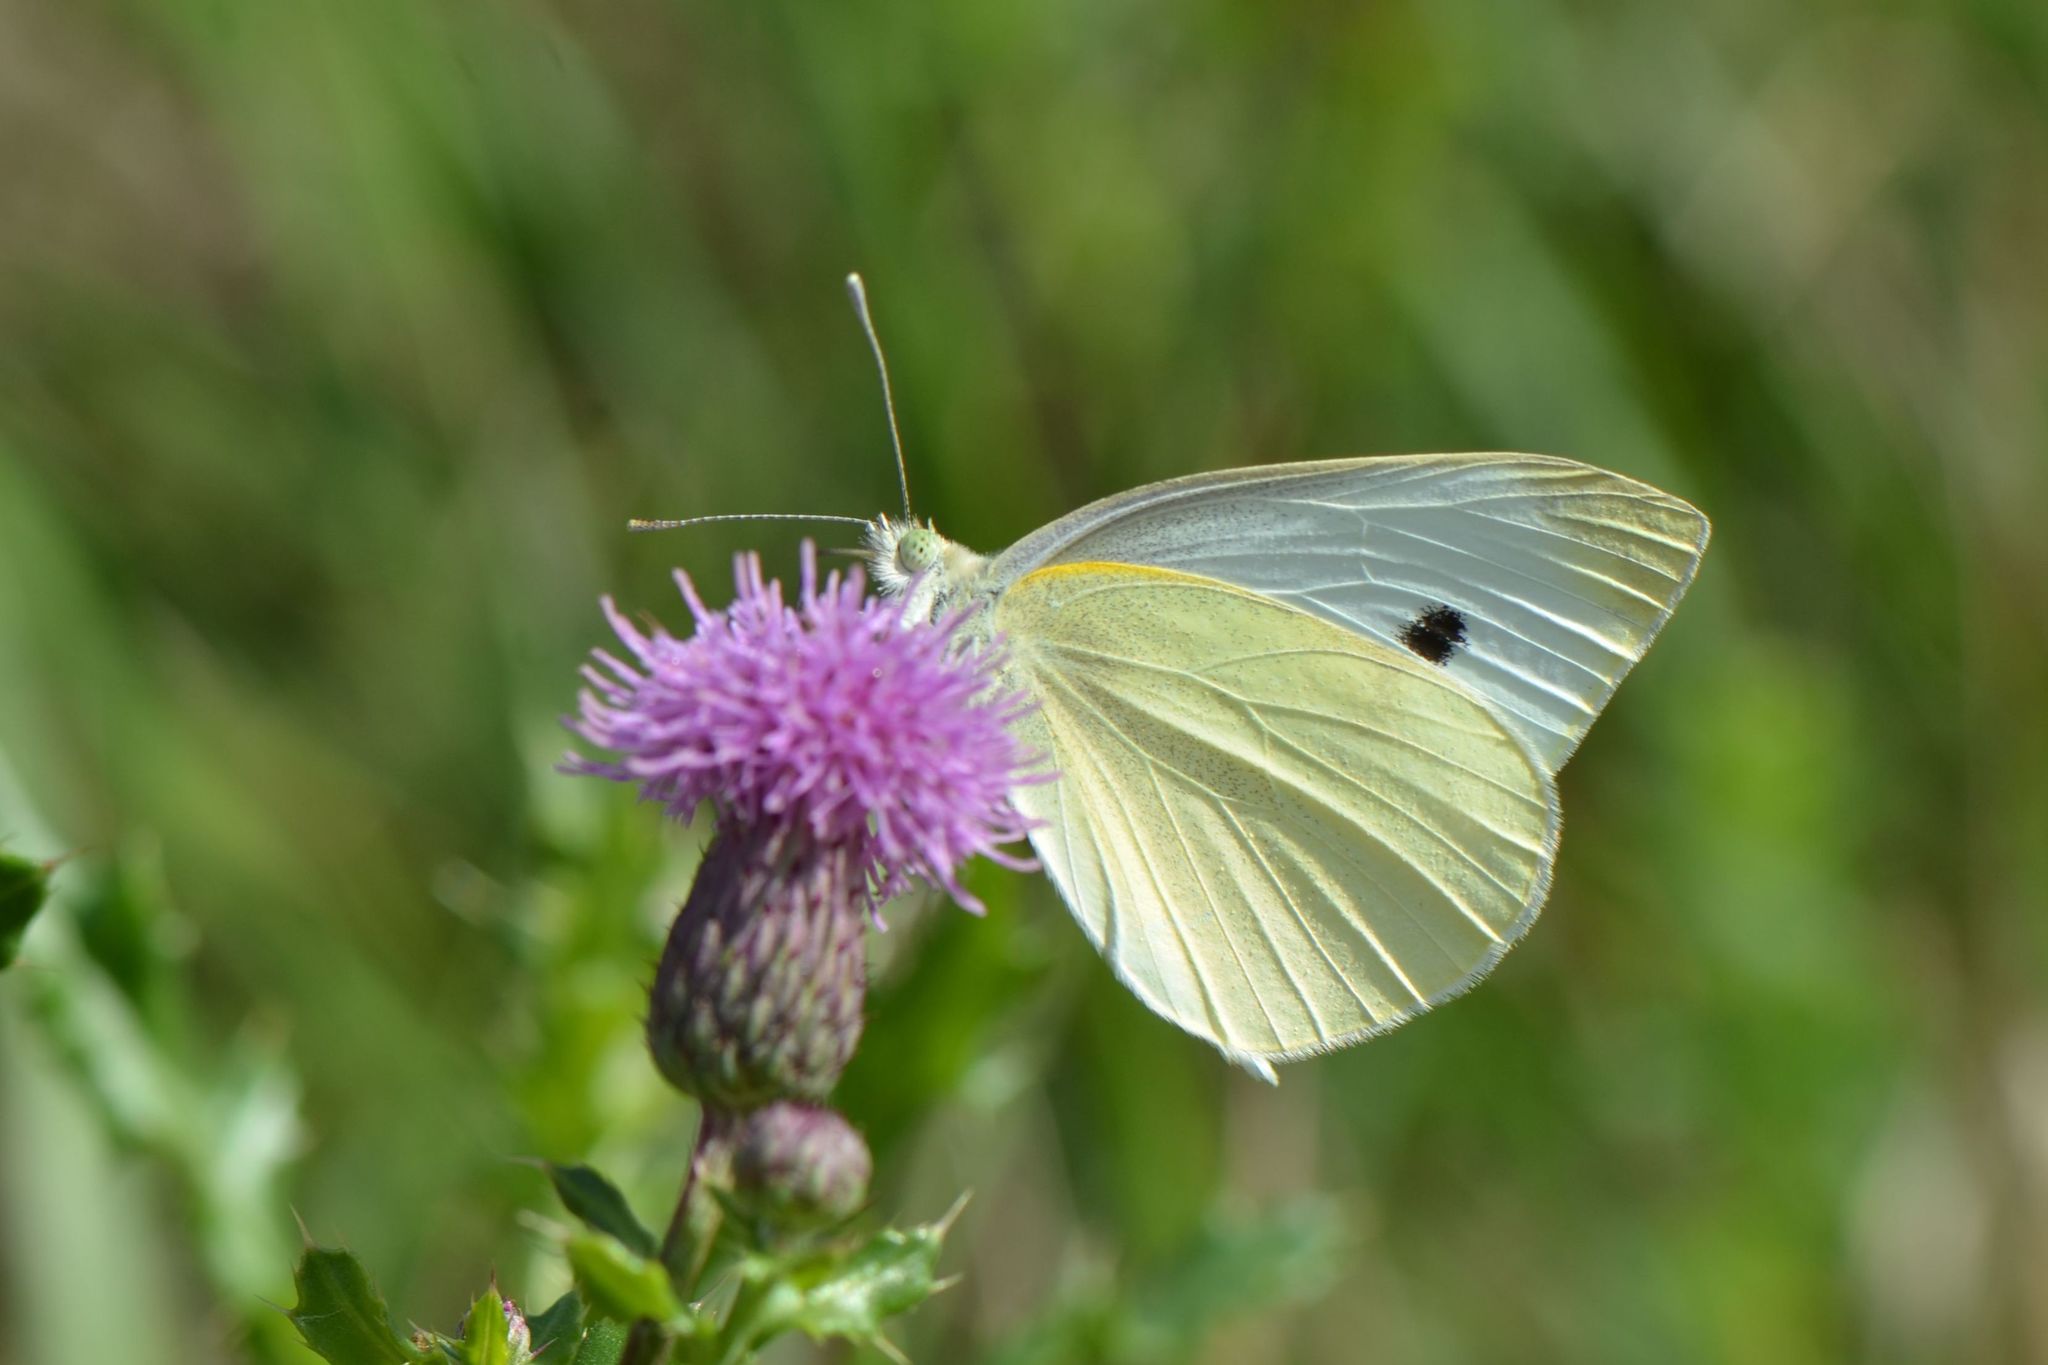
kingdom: Animalia
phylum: Arthropoda
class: Insecta
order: Lepidoptera
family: Pieridae
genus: Pieris
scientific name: Pieris rapae
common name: Small white
